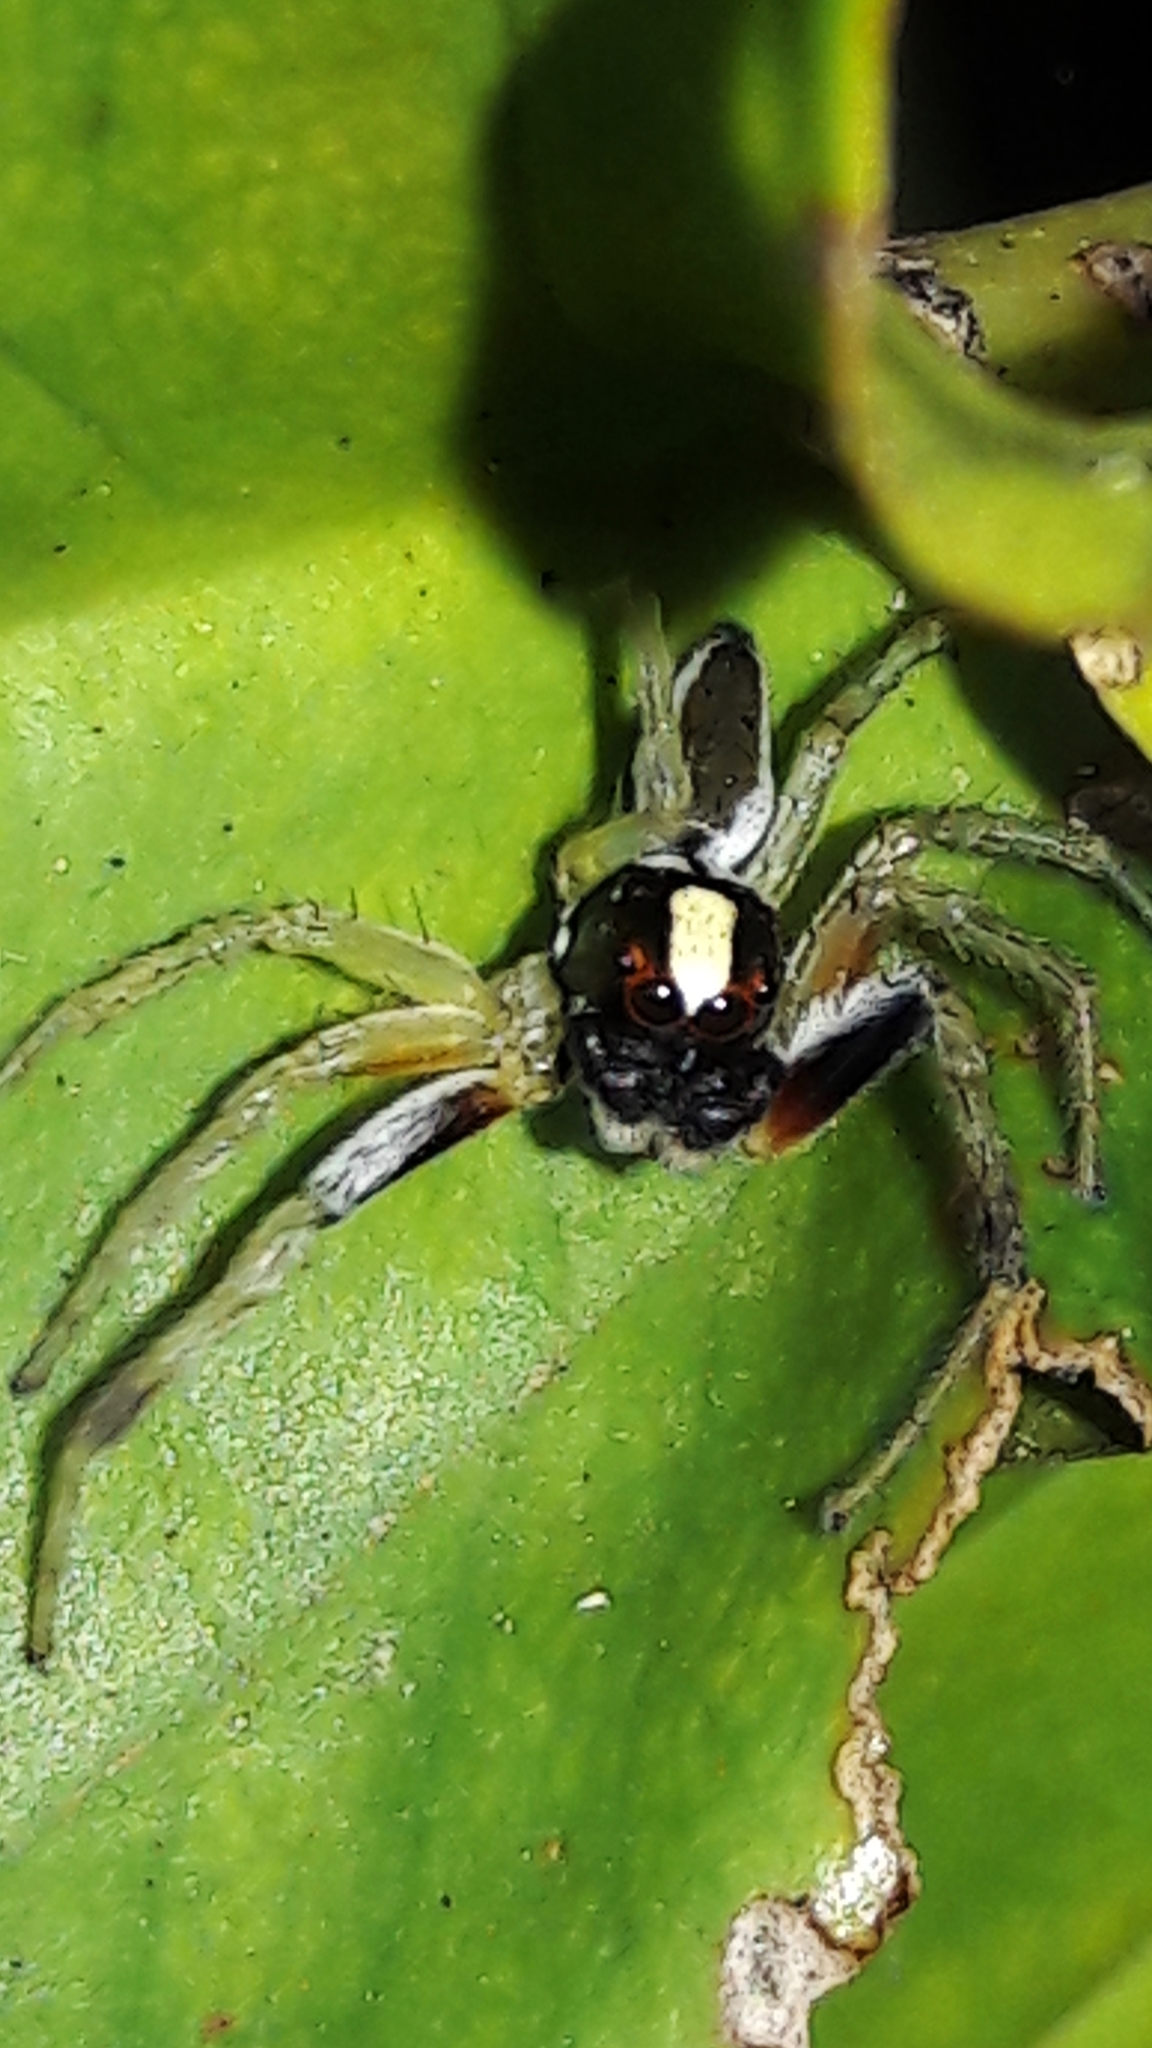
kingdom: Animalia
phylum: Arthropoda
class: Arachnida
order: Araneae
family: Salticidae
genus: Chira
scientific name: Chira spinosa
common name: Jumping spiders
